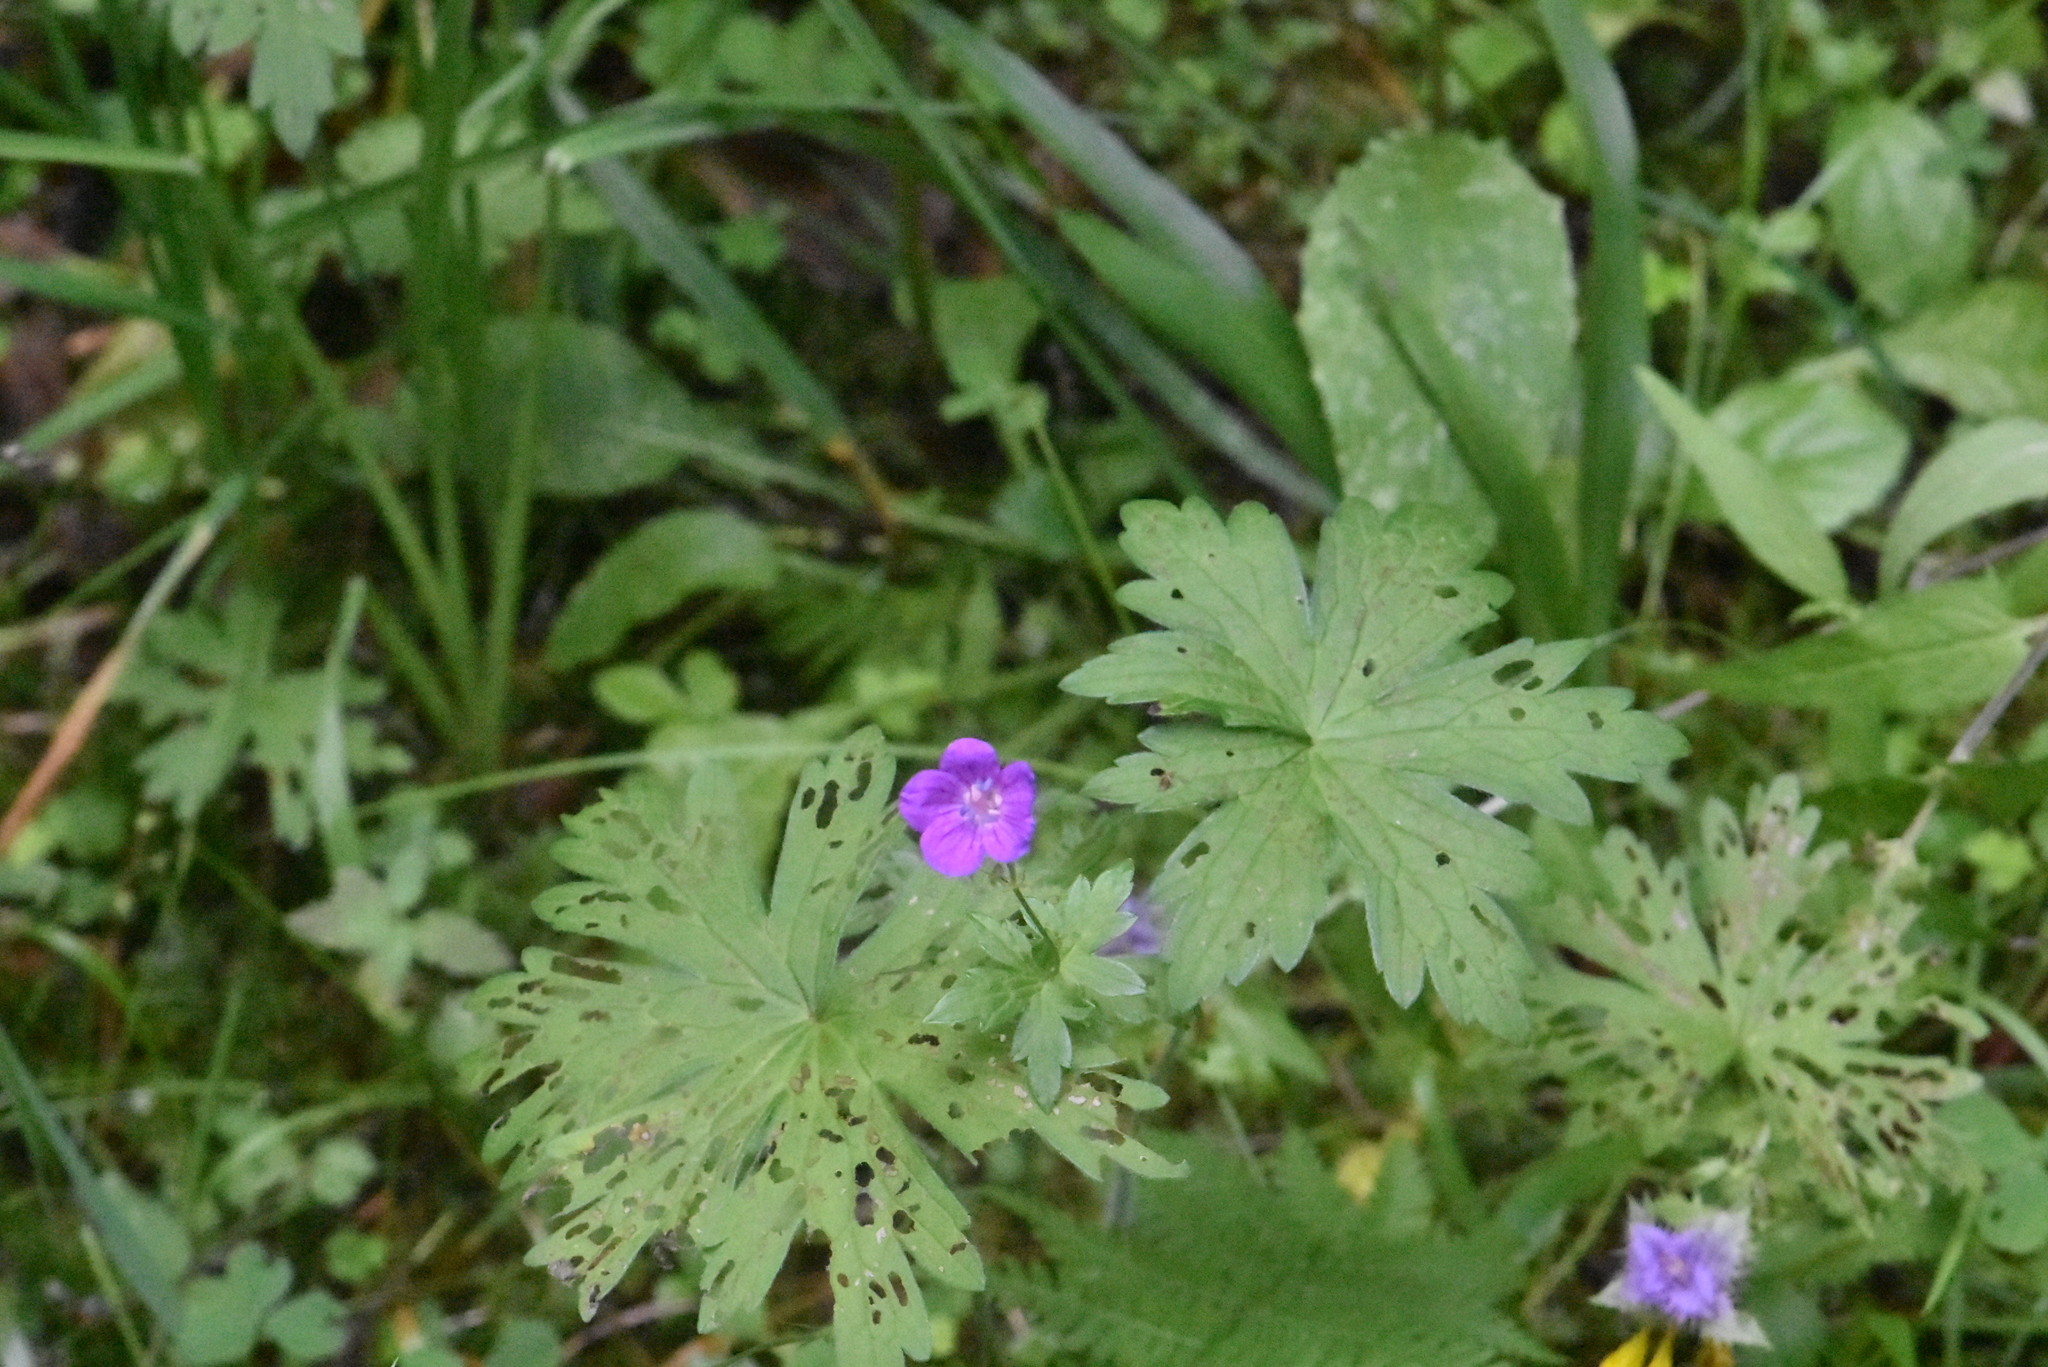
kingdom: Plantae
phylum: Tracheophyta
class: Magnoliopsida
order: Geraniales
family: Geraniaceae
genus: Geranium
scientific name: Geranium palustre
